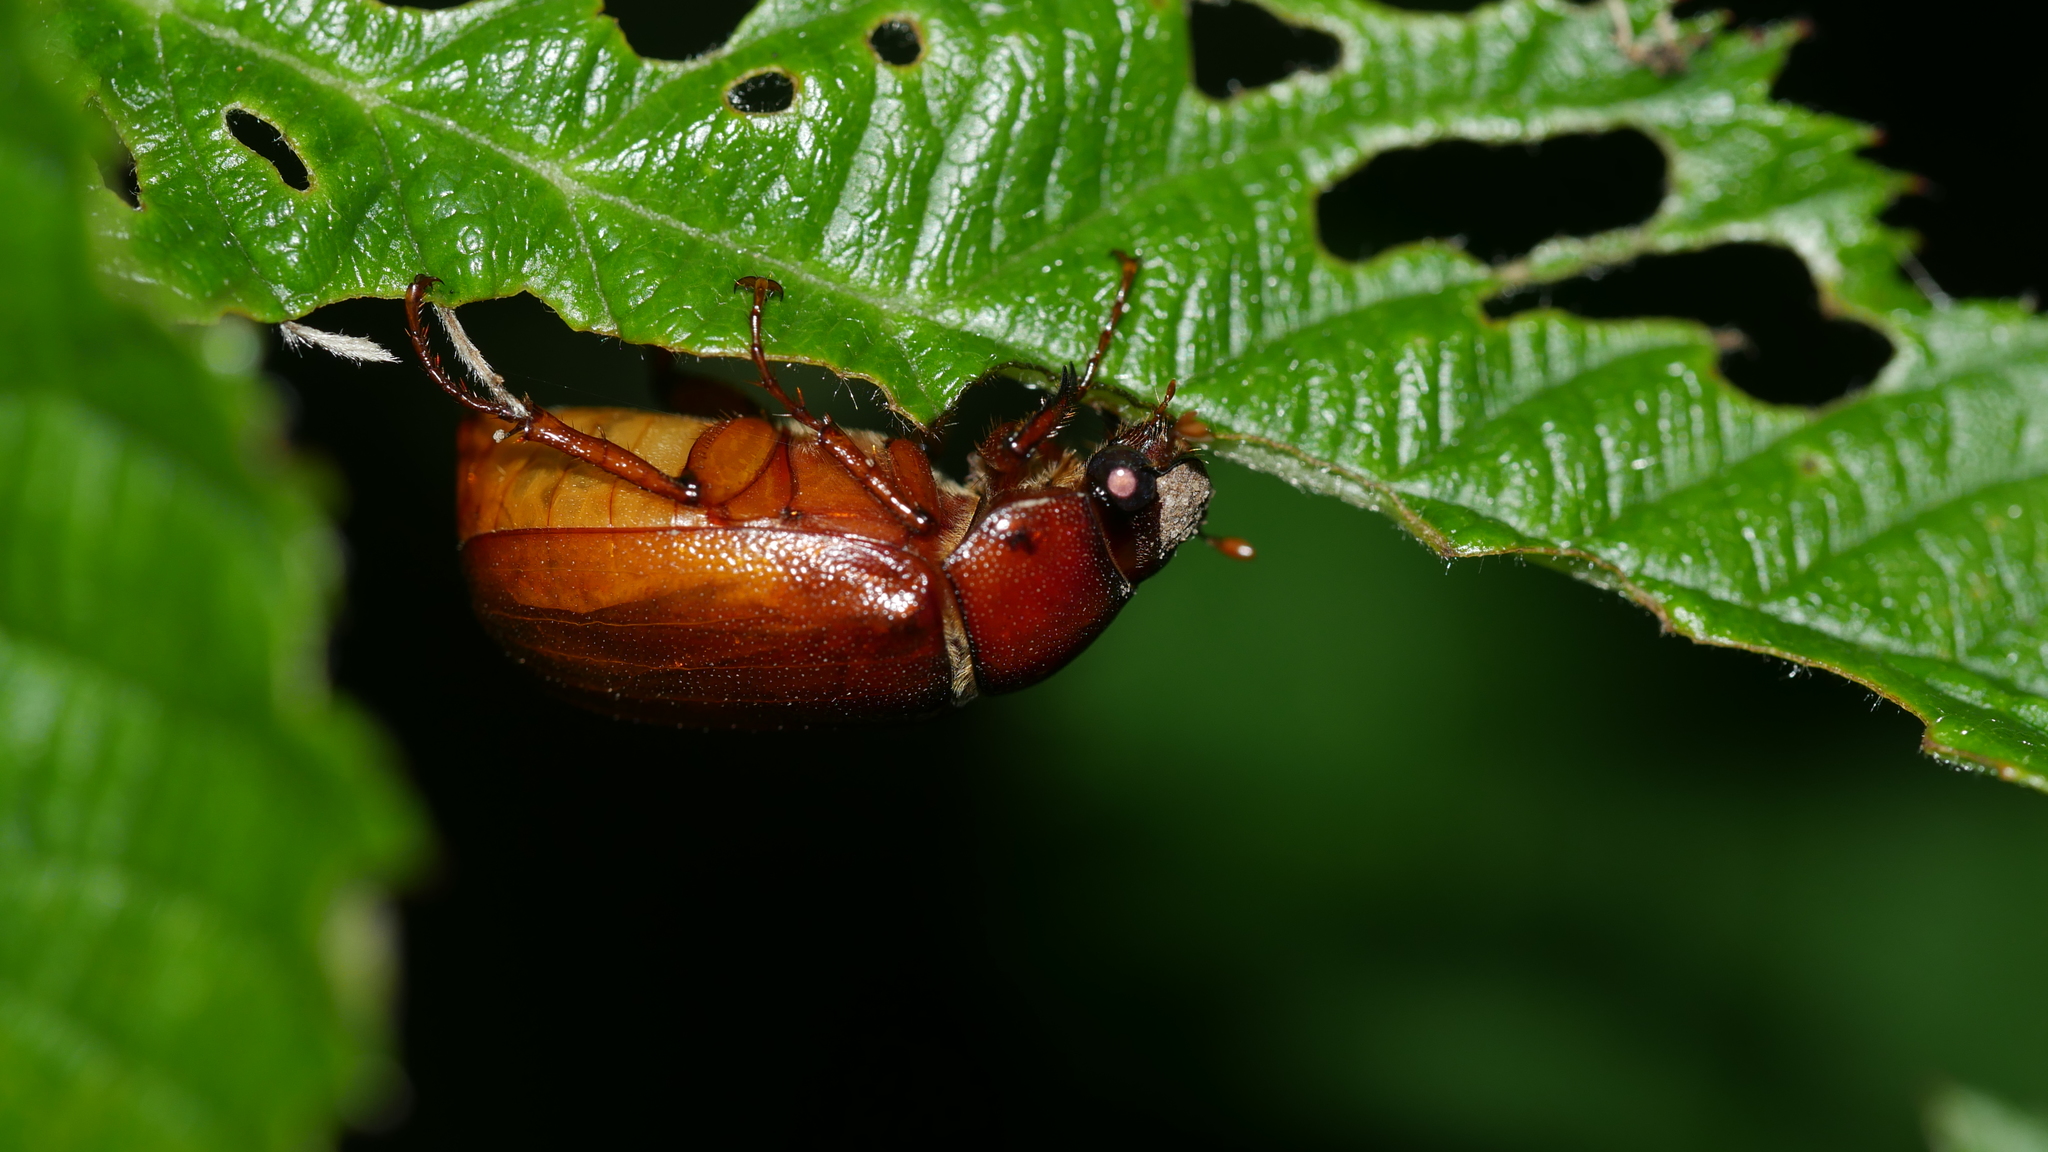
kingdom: Animalia
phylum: Arthropoda
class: Insecta
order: Coleoptera
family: Scarabaeidae
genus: Phyllophaga
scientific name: Phyllophaga
